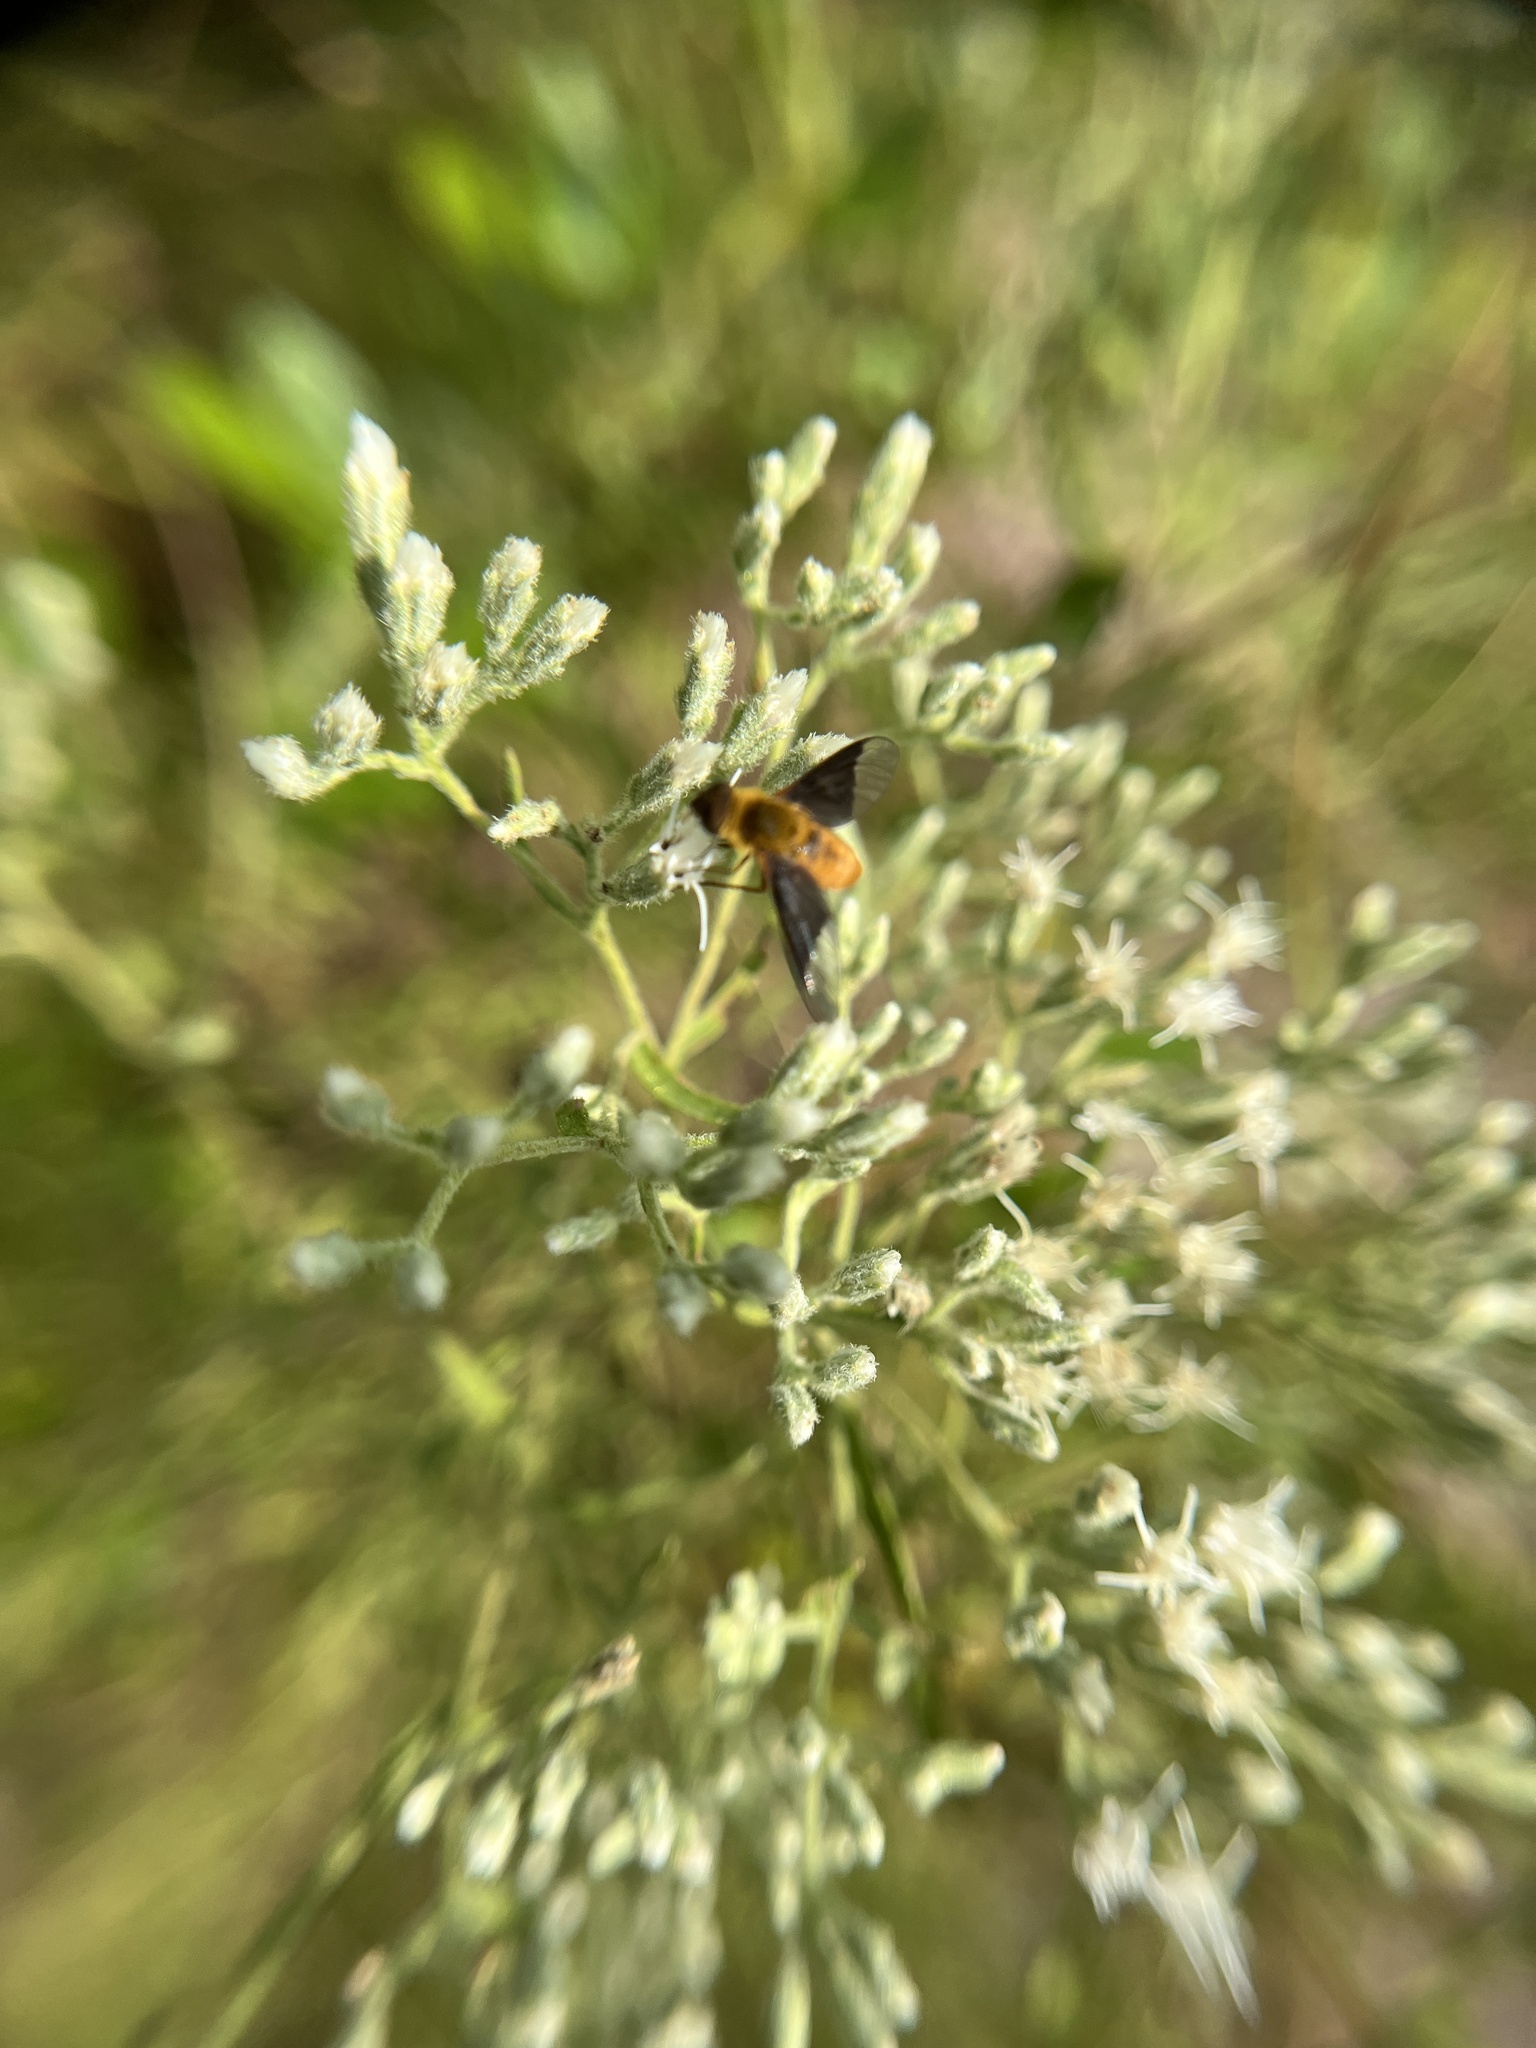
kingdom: Animalia
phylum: Arthropoda
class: Insecta
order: Diptera
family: Bombyliidae
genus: Chrysanthrax
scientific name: Chrysanthrax cypris
